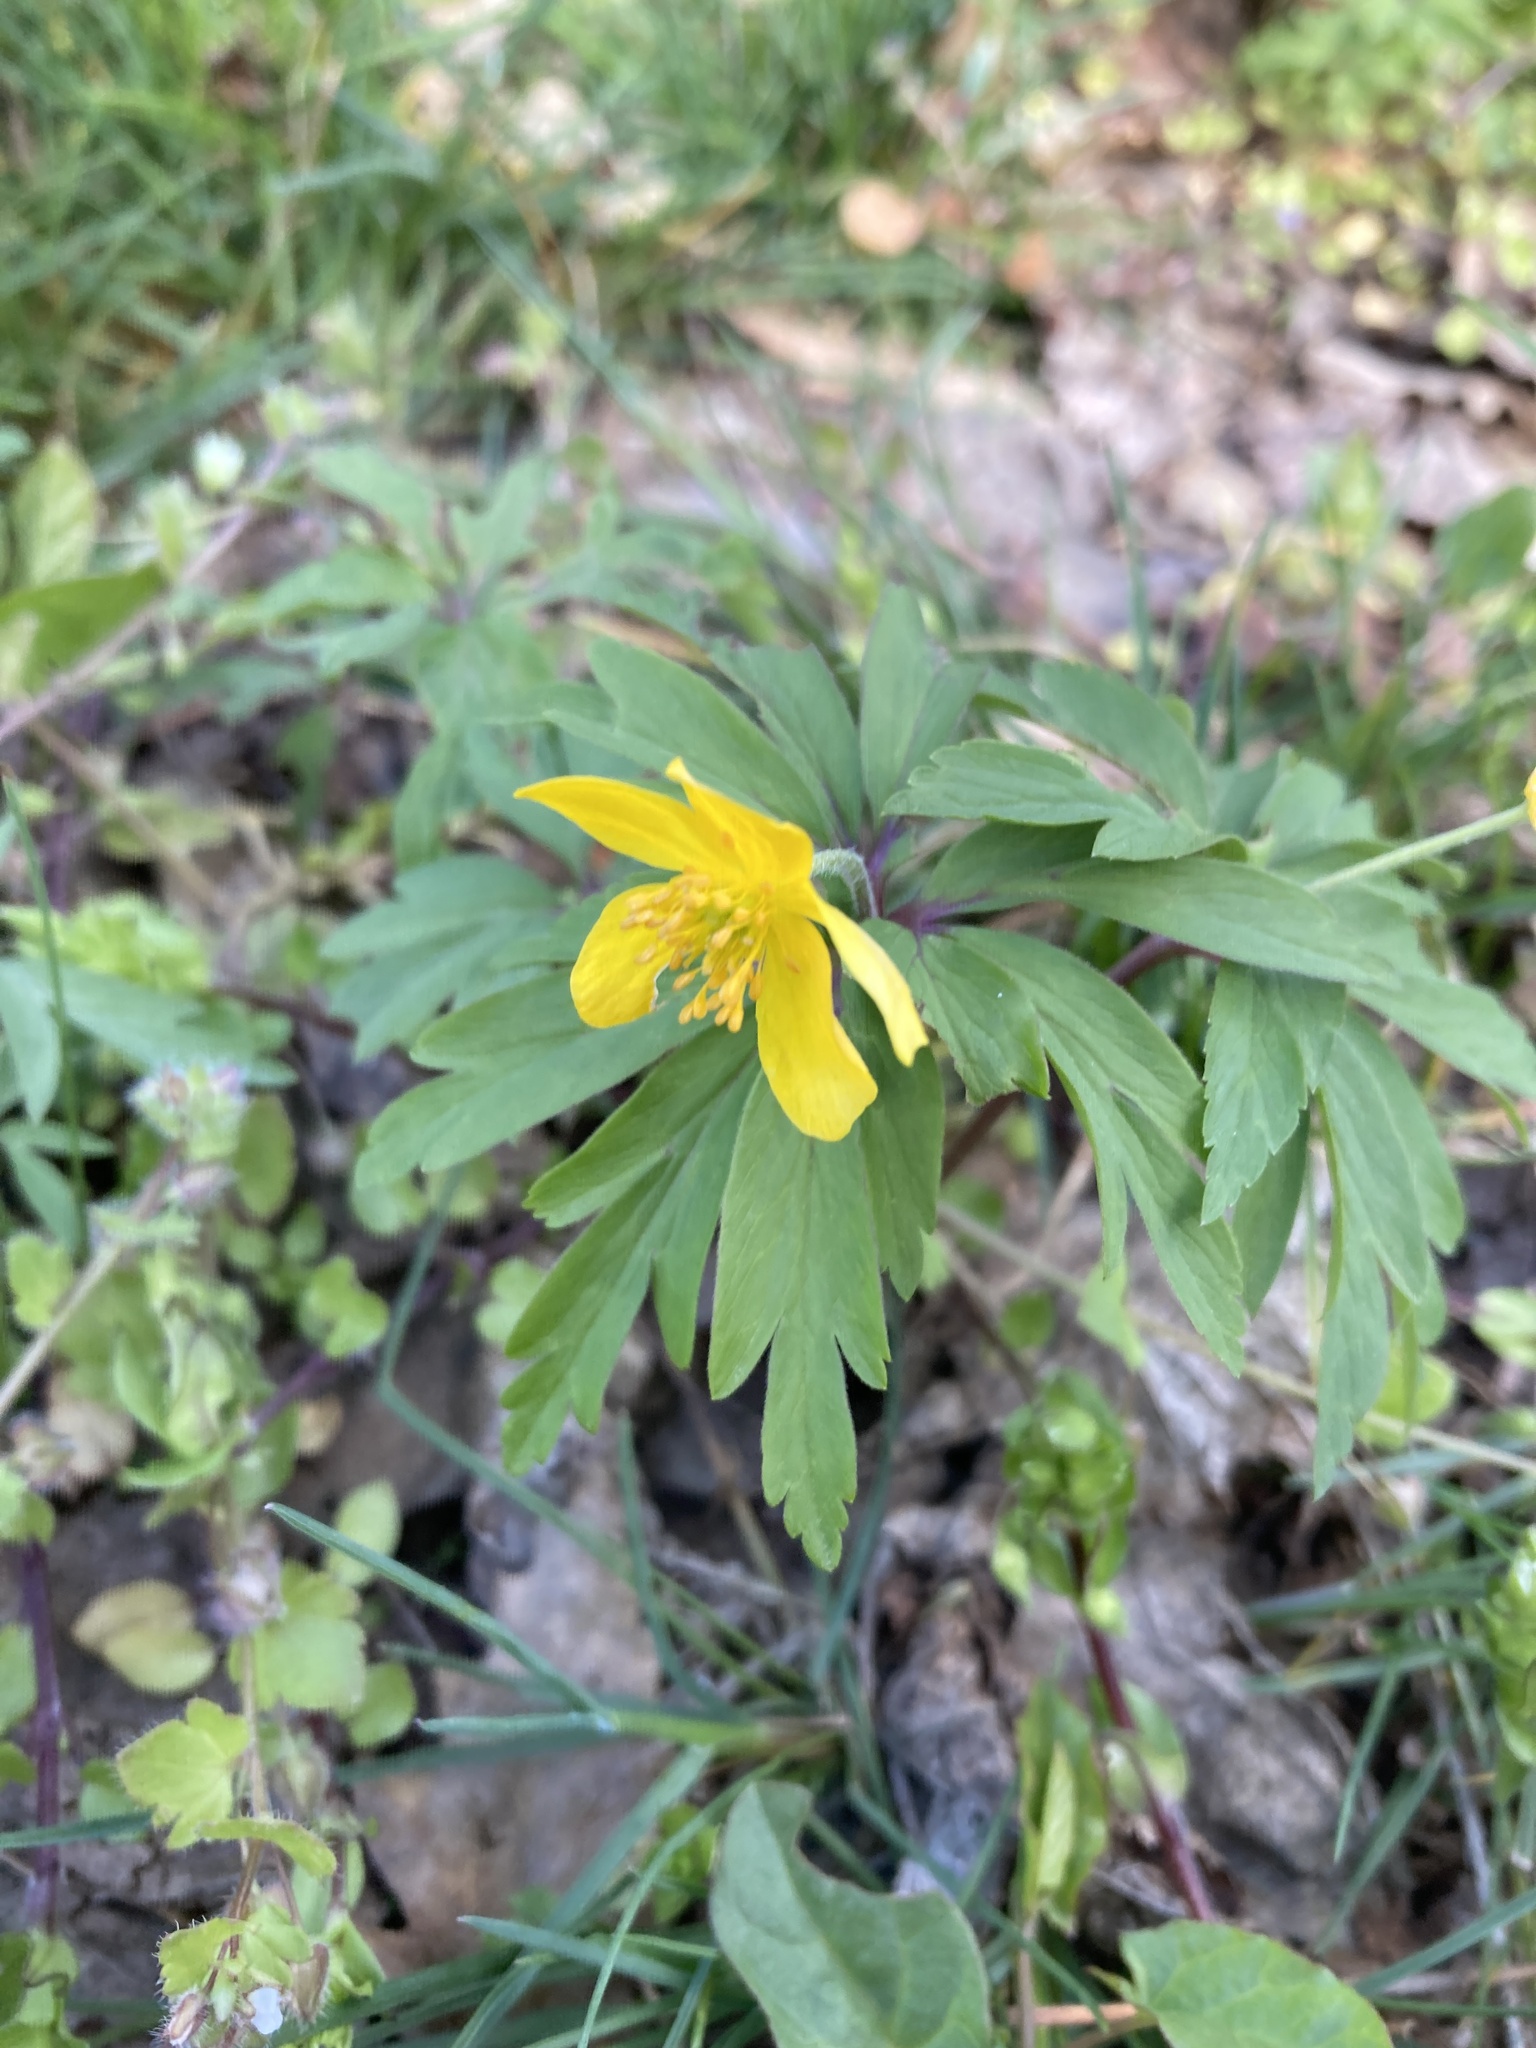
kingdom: Plantae
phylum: Tracheophyta
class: Magnoliopsida
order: Ranunculales
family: Ranunculaceae
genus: Anemone
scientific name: Anemone ranunculoides
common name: Yellow anemone
